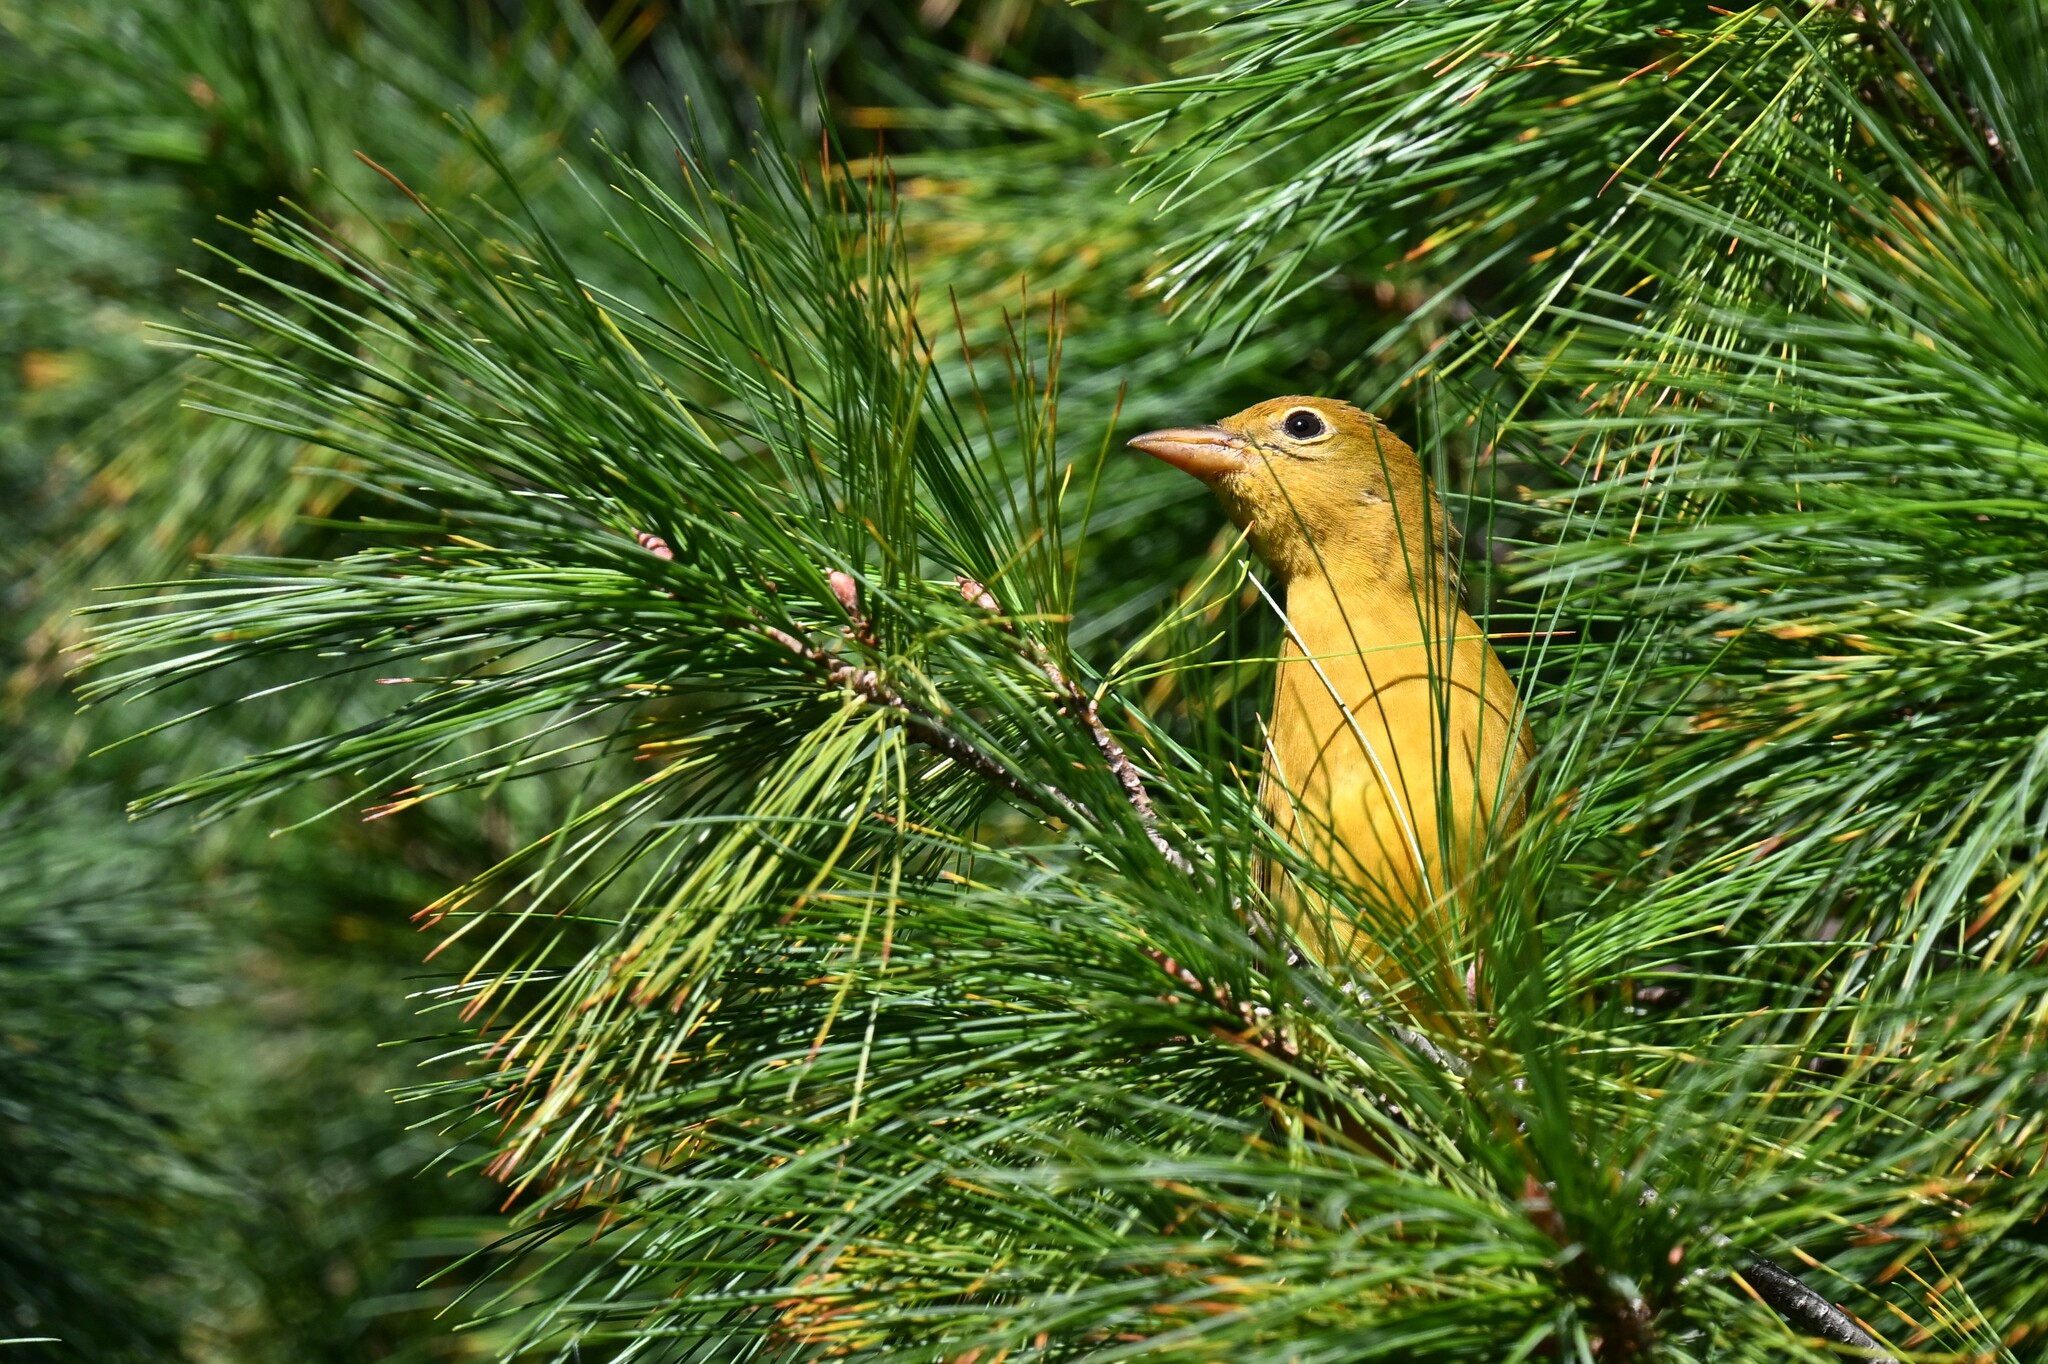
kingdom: Animalia
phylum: Chordata
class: Aves
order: Passeriformes
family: Cardinalidae
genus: Piranga
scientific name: Piranga rubra
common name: Summer tanager
